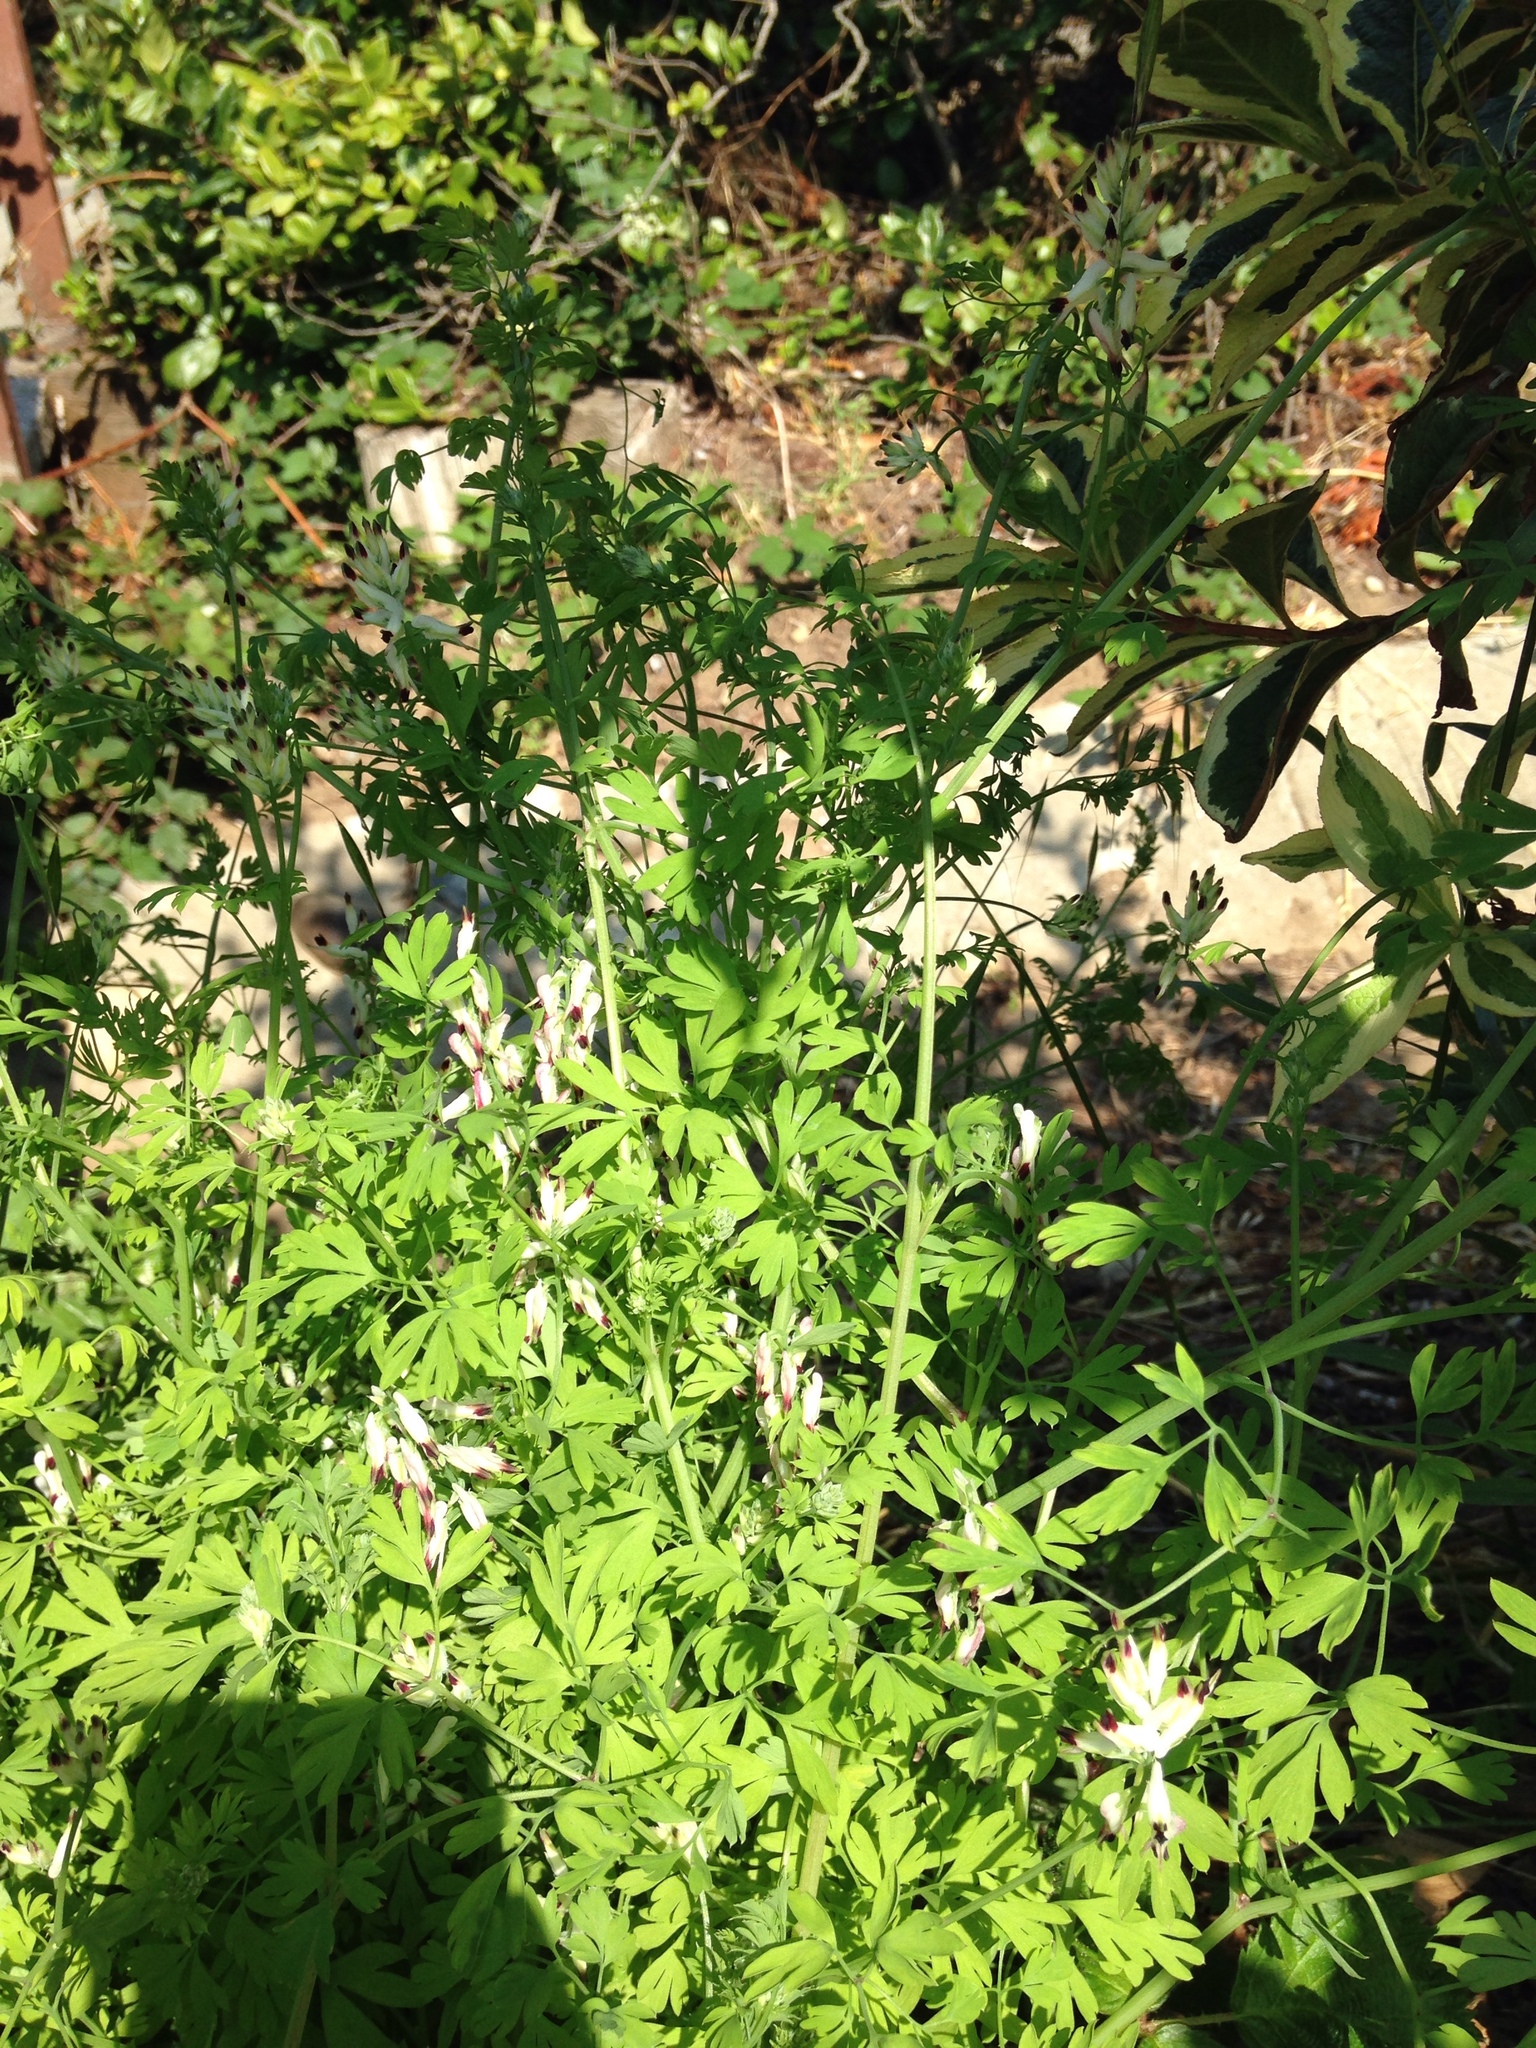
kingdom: Plantae
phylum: Tracheophyta
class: Magnoliopsida
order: Ranunculales
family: Papaveraceae
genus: Fumaria
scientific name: Fumaria capreolata
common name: White ramping-fumitory
